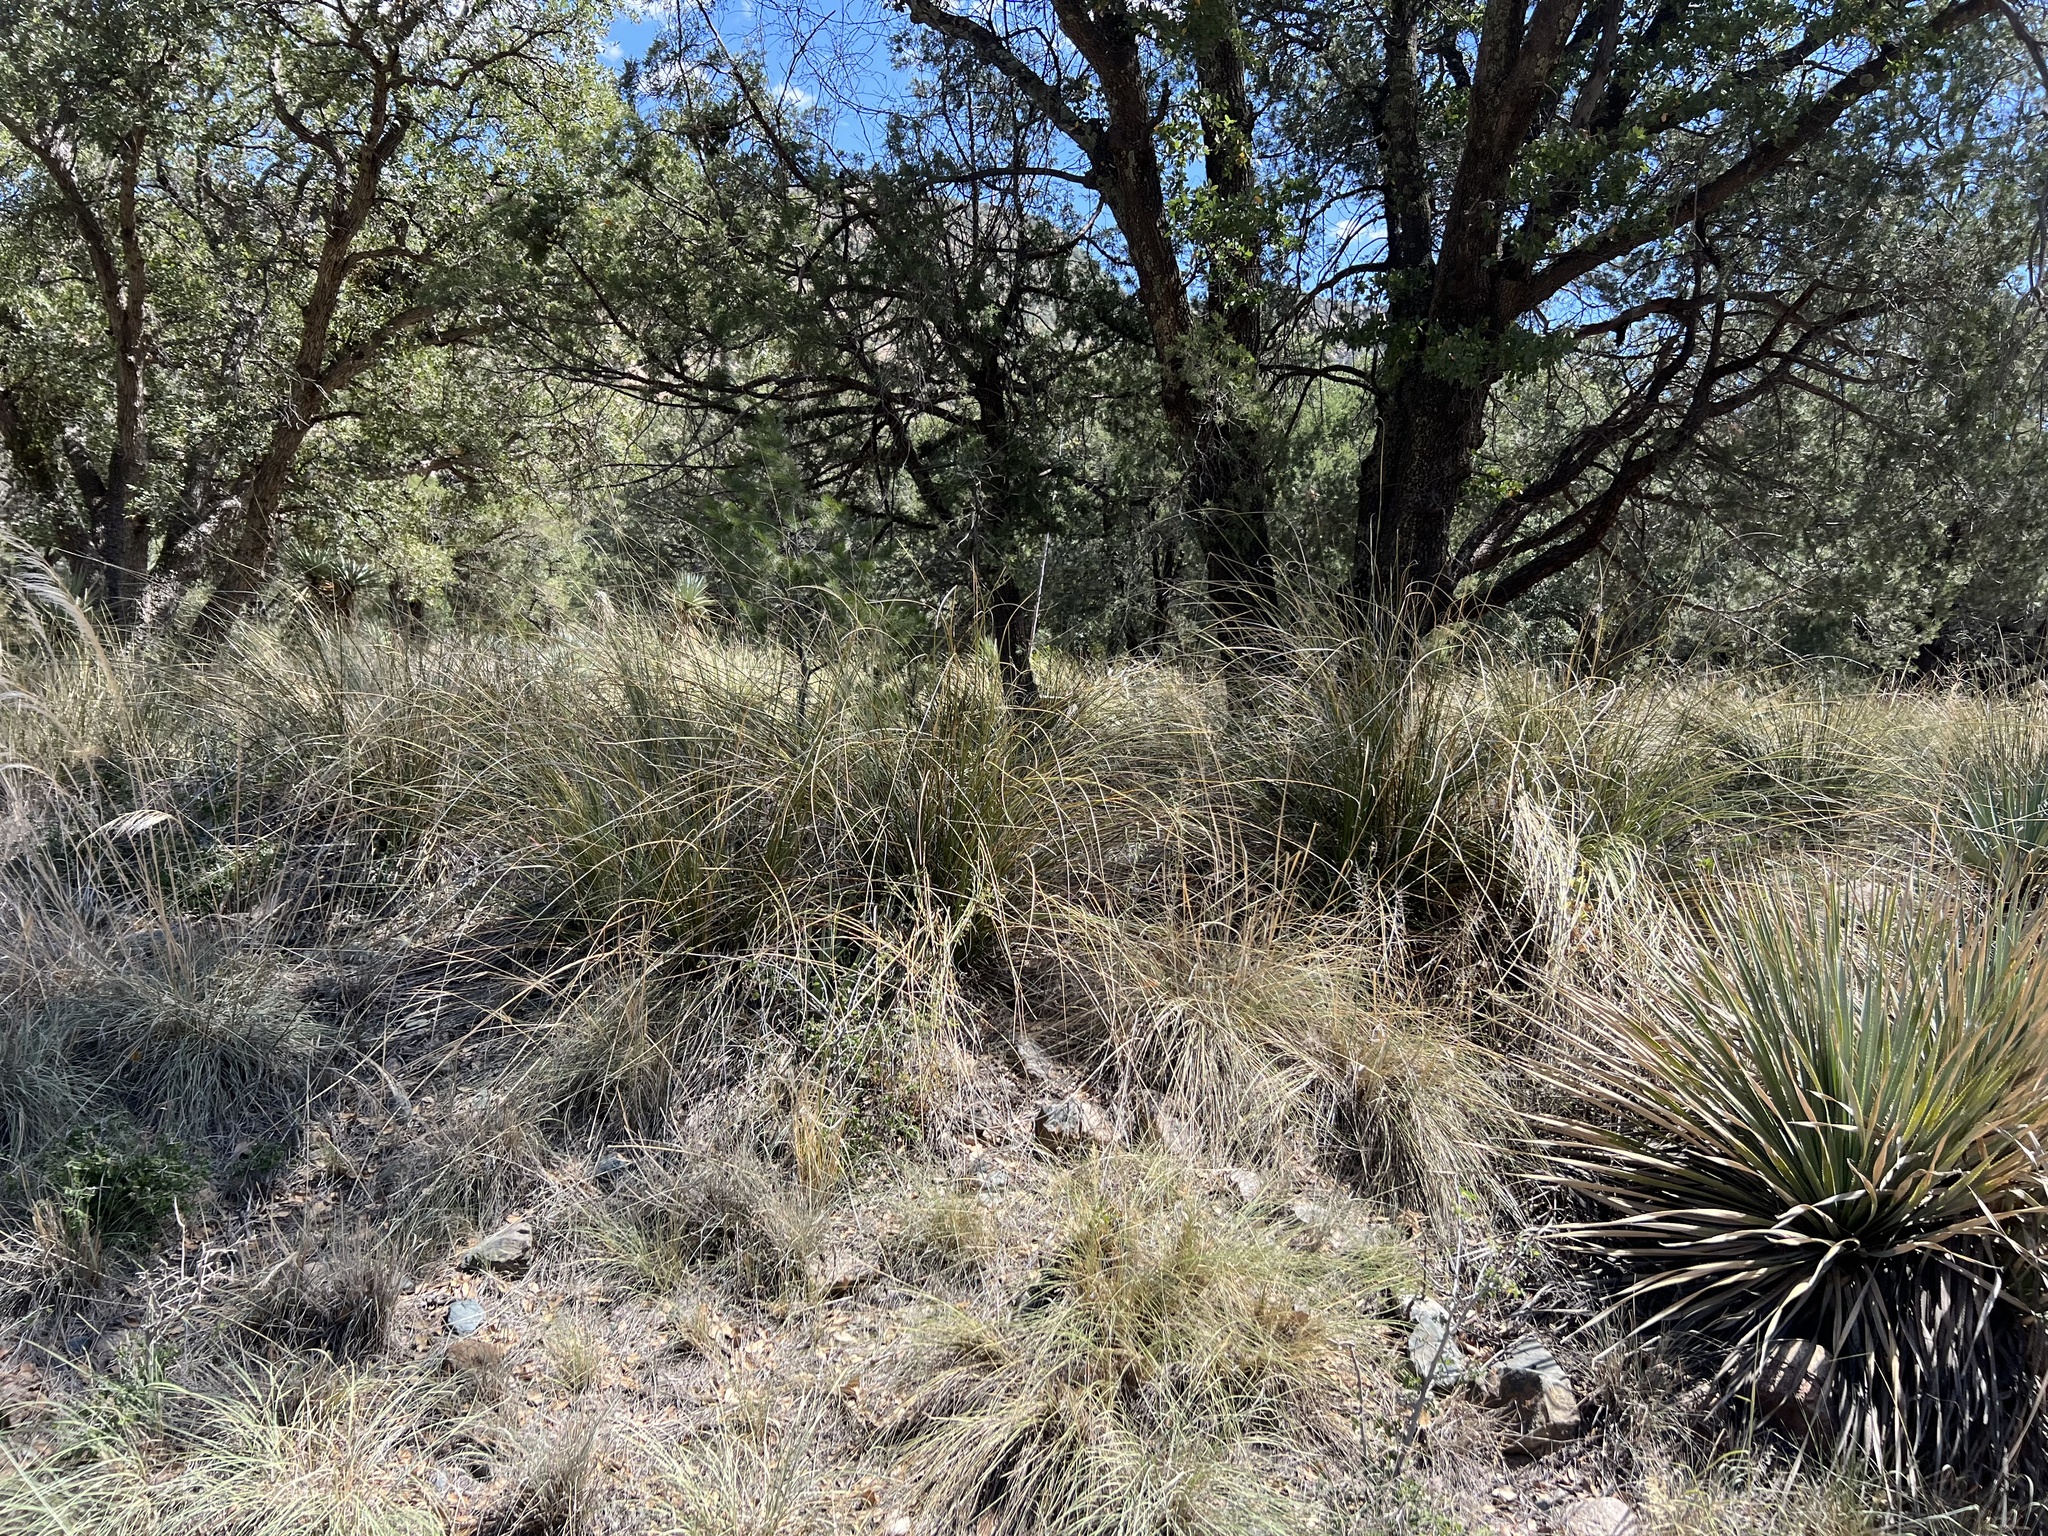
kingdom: Plantae
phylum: Tracheophyta
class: Liliopsida
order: Asparagales
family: Asparagaceae
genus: Nolina
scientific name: Nolina microcarpa
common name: Bear-grass
